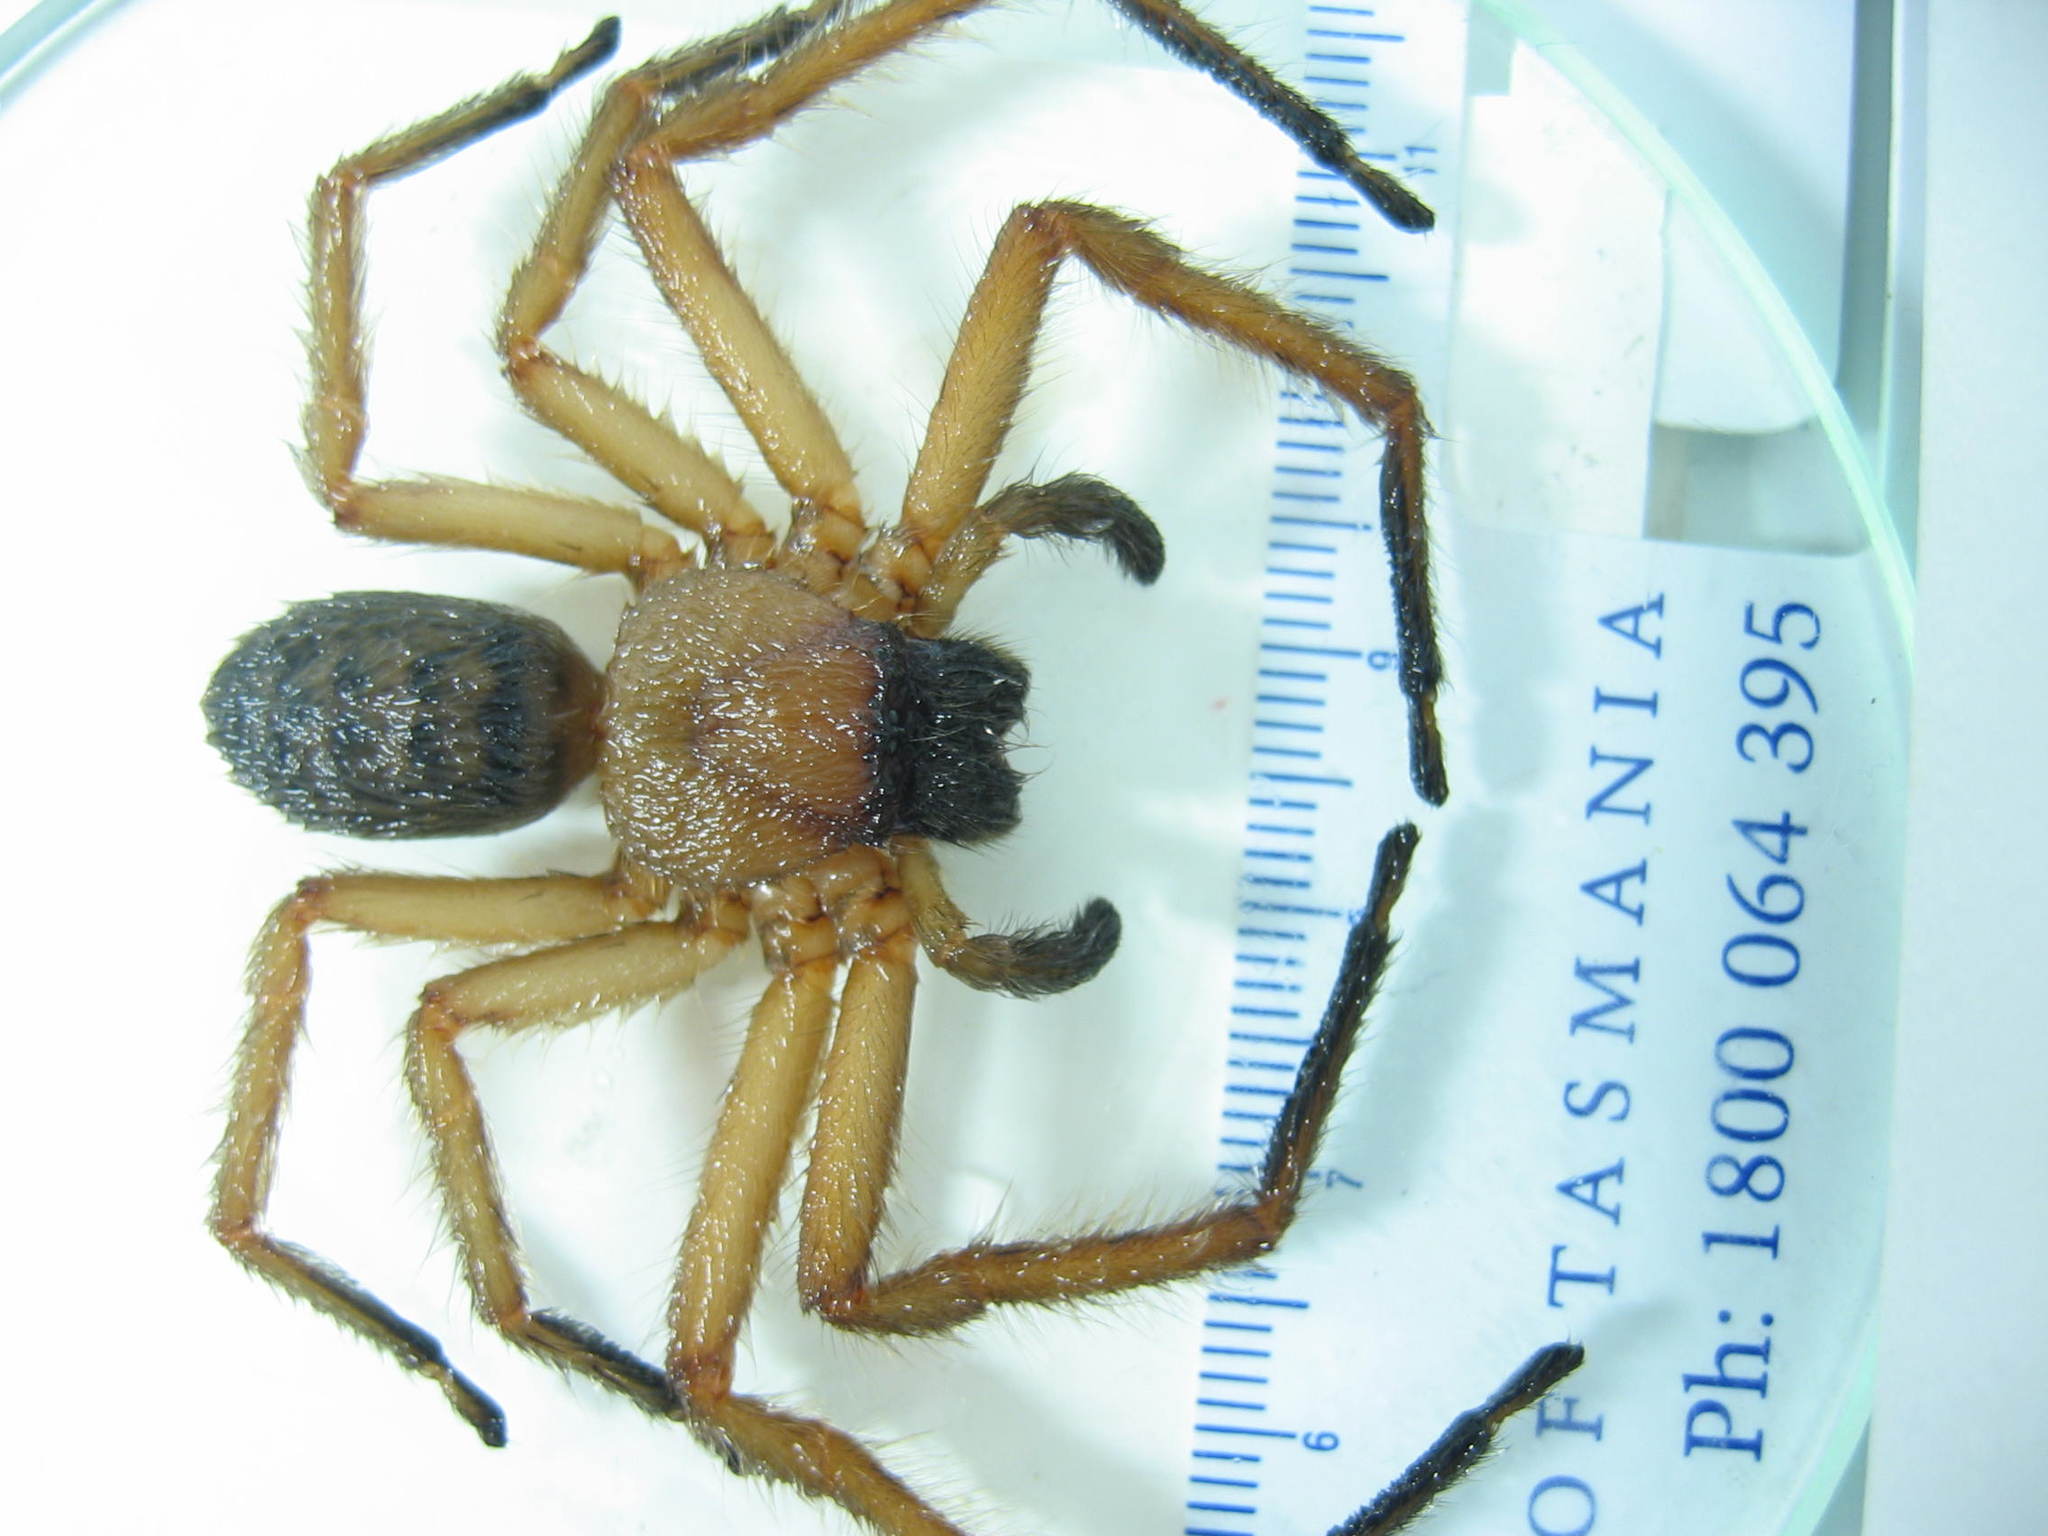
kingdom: Animalia
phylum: Arthropoda
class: Arachnida
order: Araneae
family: Sparassidae
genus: Delena
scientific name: Delena cancerides
